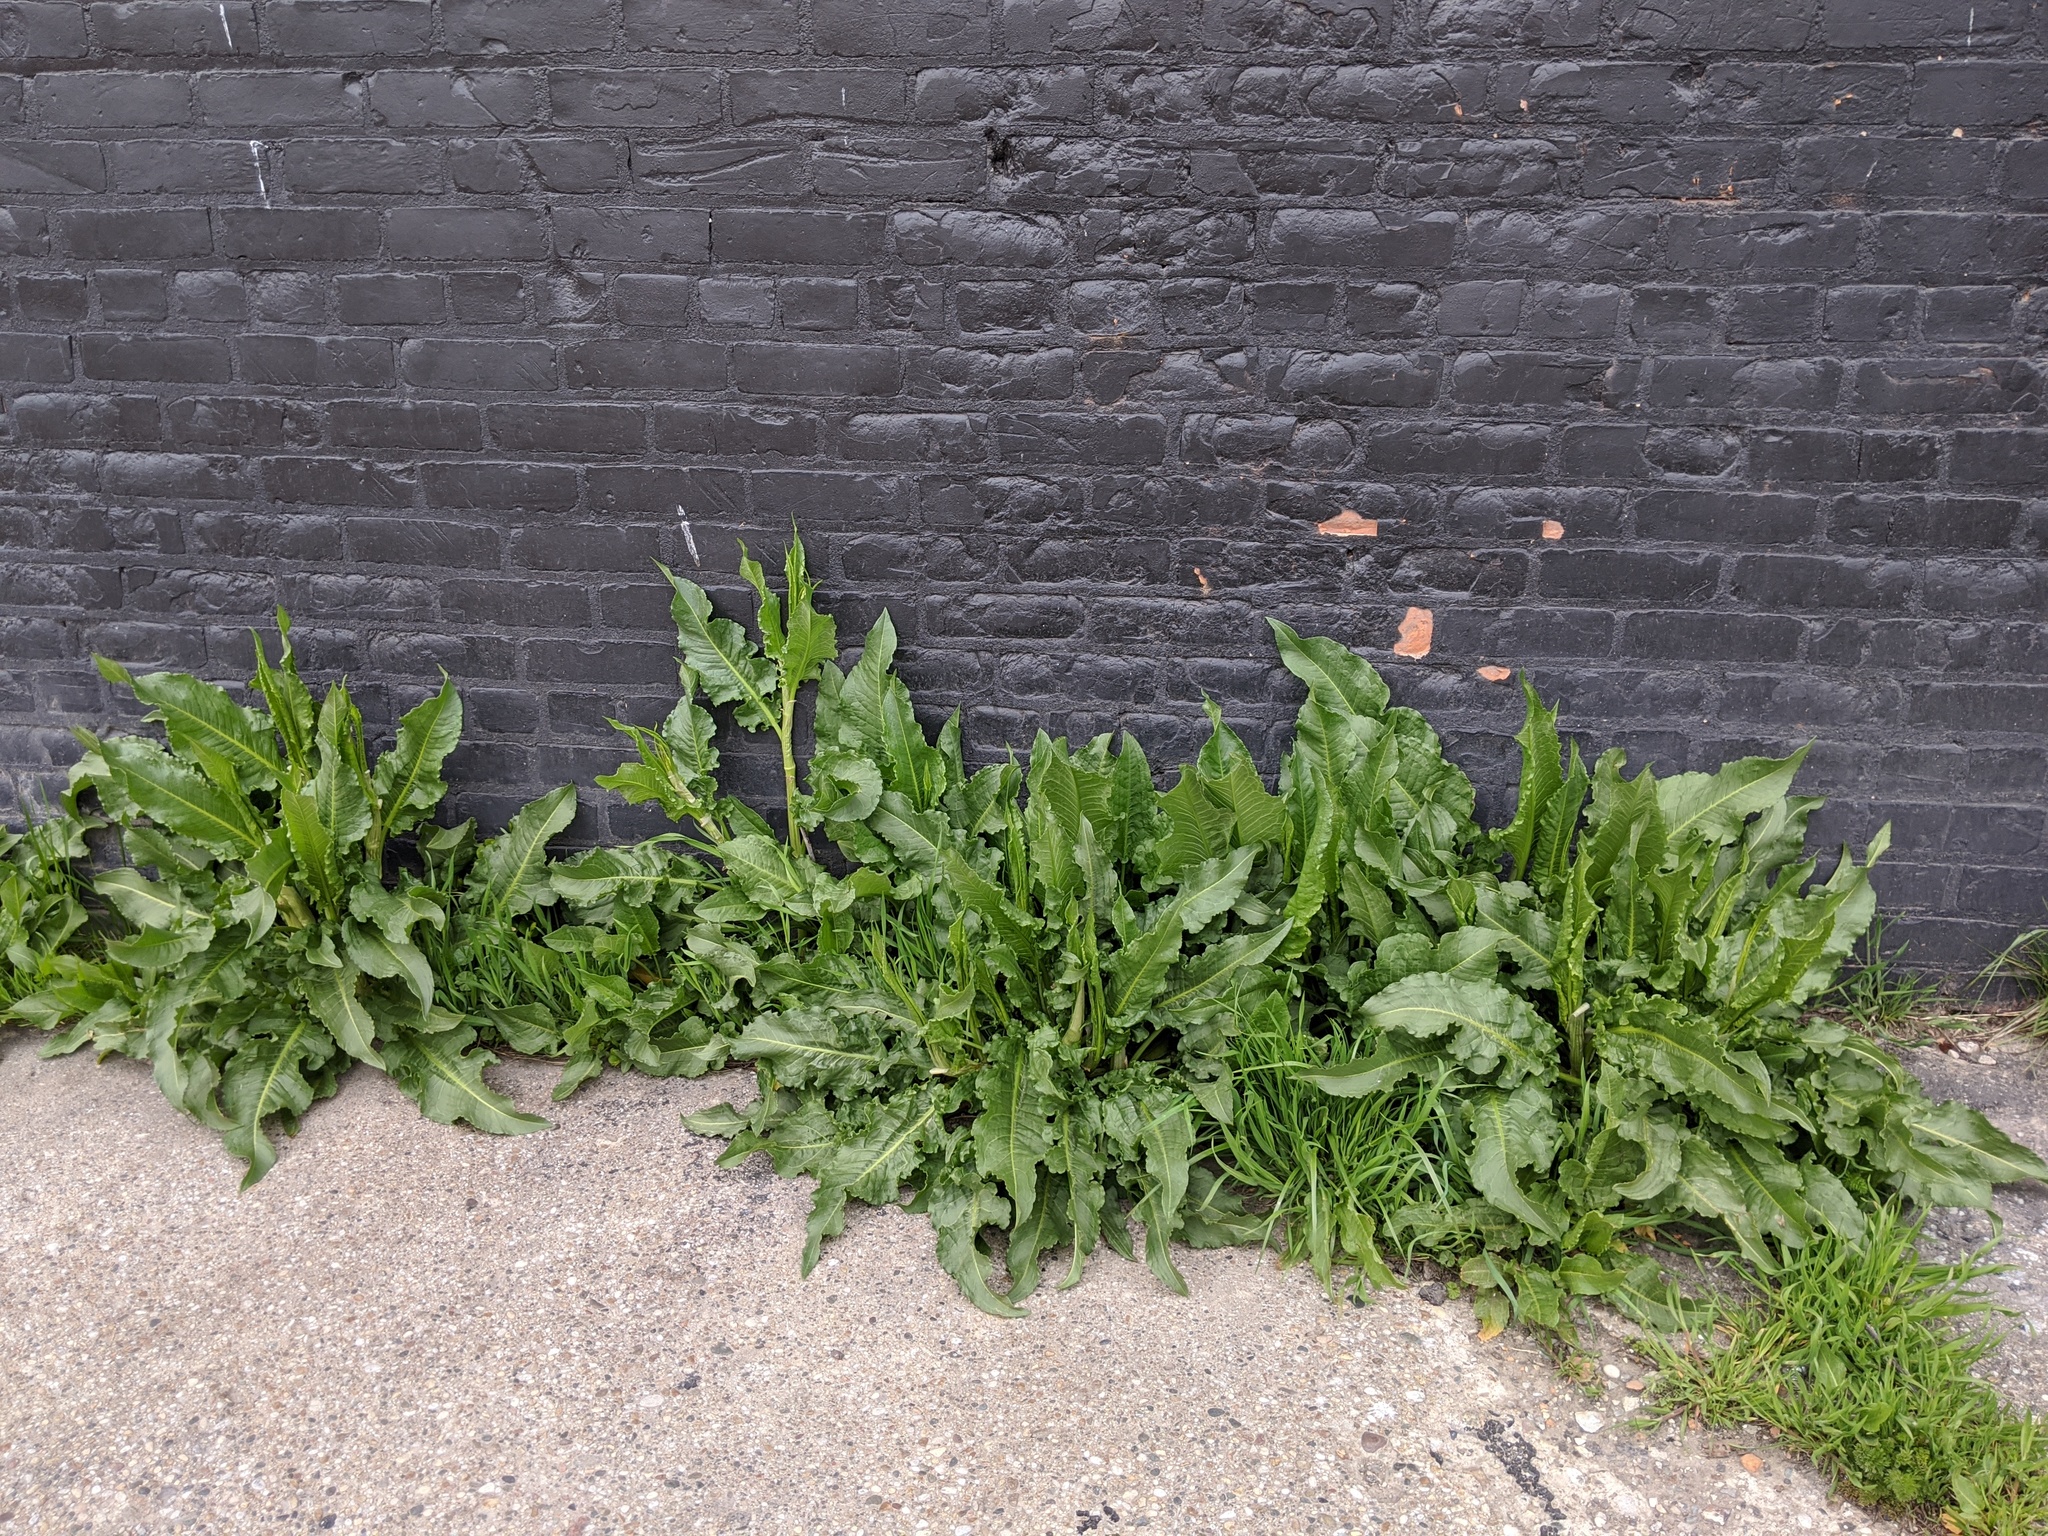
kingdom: Plantae
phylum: Tracheophyta
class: Magnoliopsida
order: Caryophyllales
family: Polygonaceae
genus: Rumex
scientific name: Rumex crispus
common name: Curled dock
